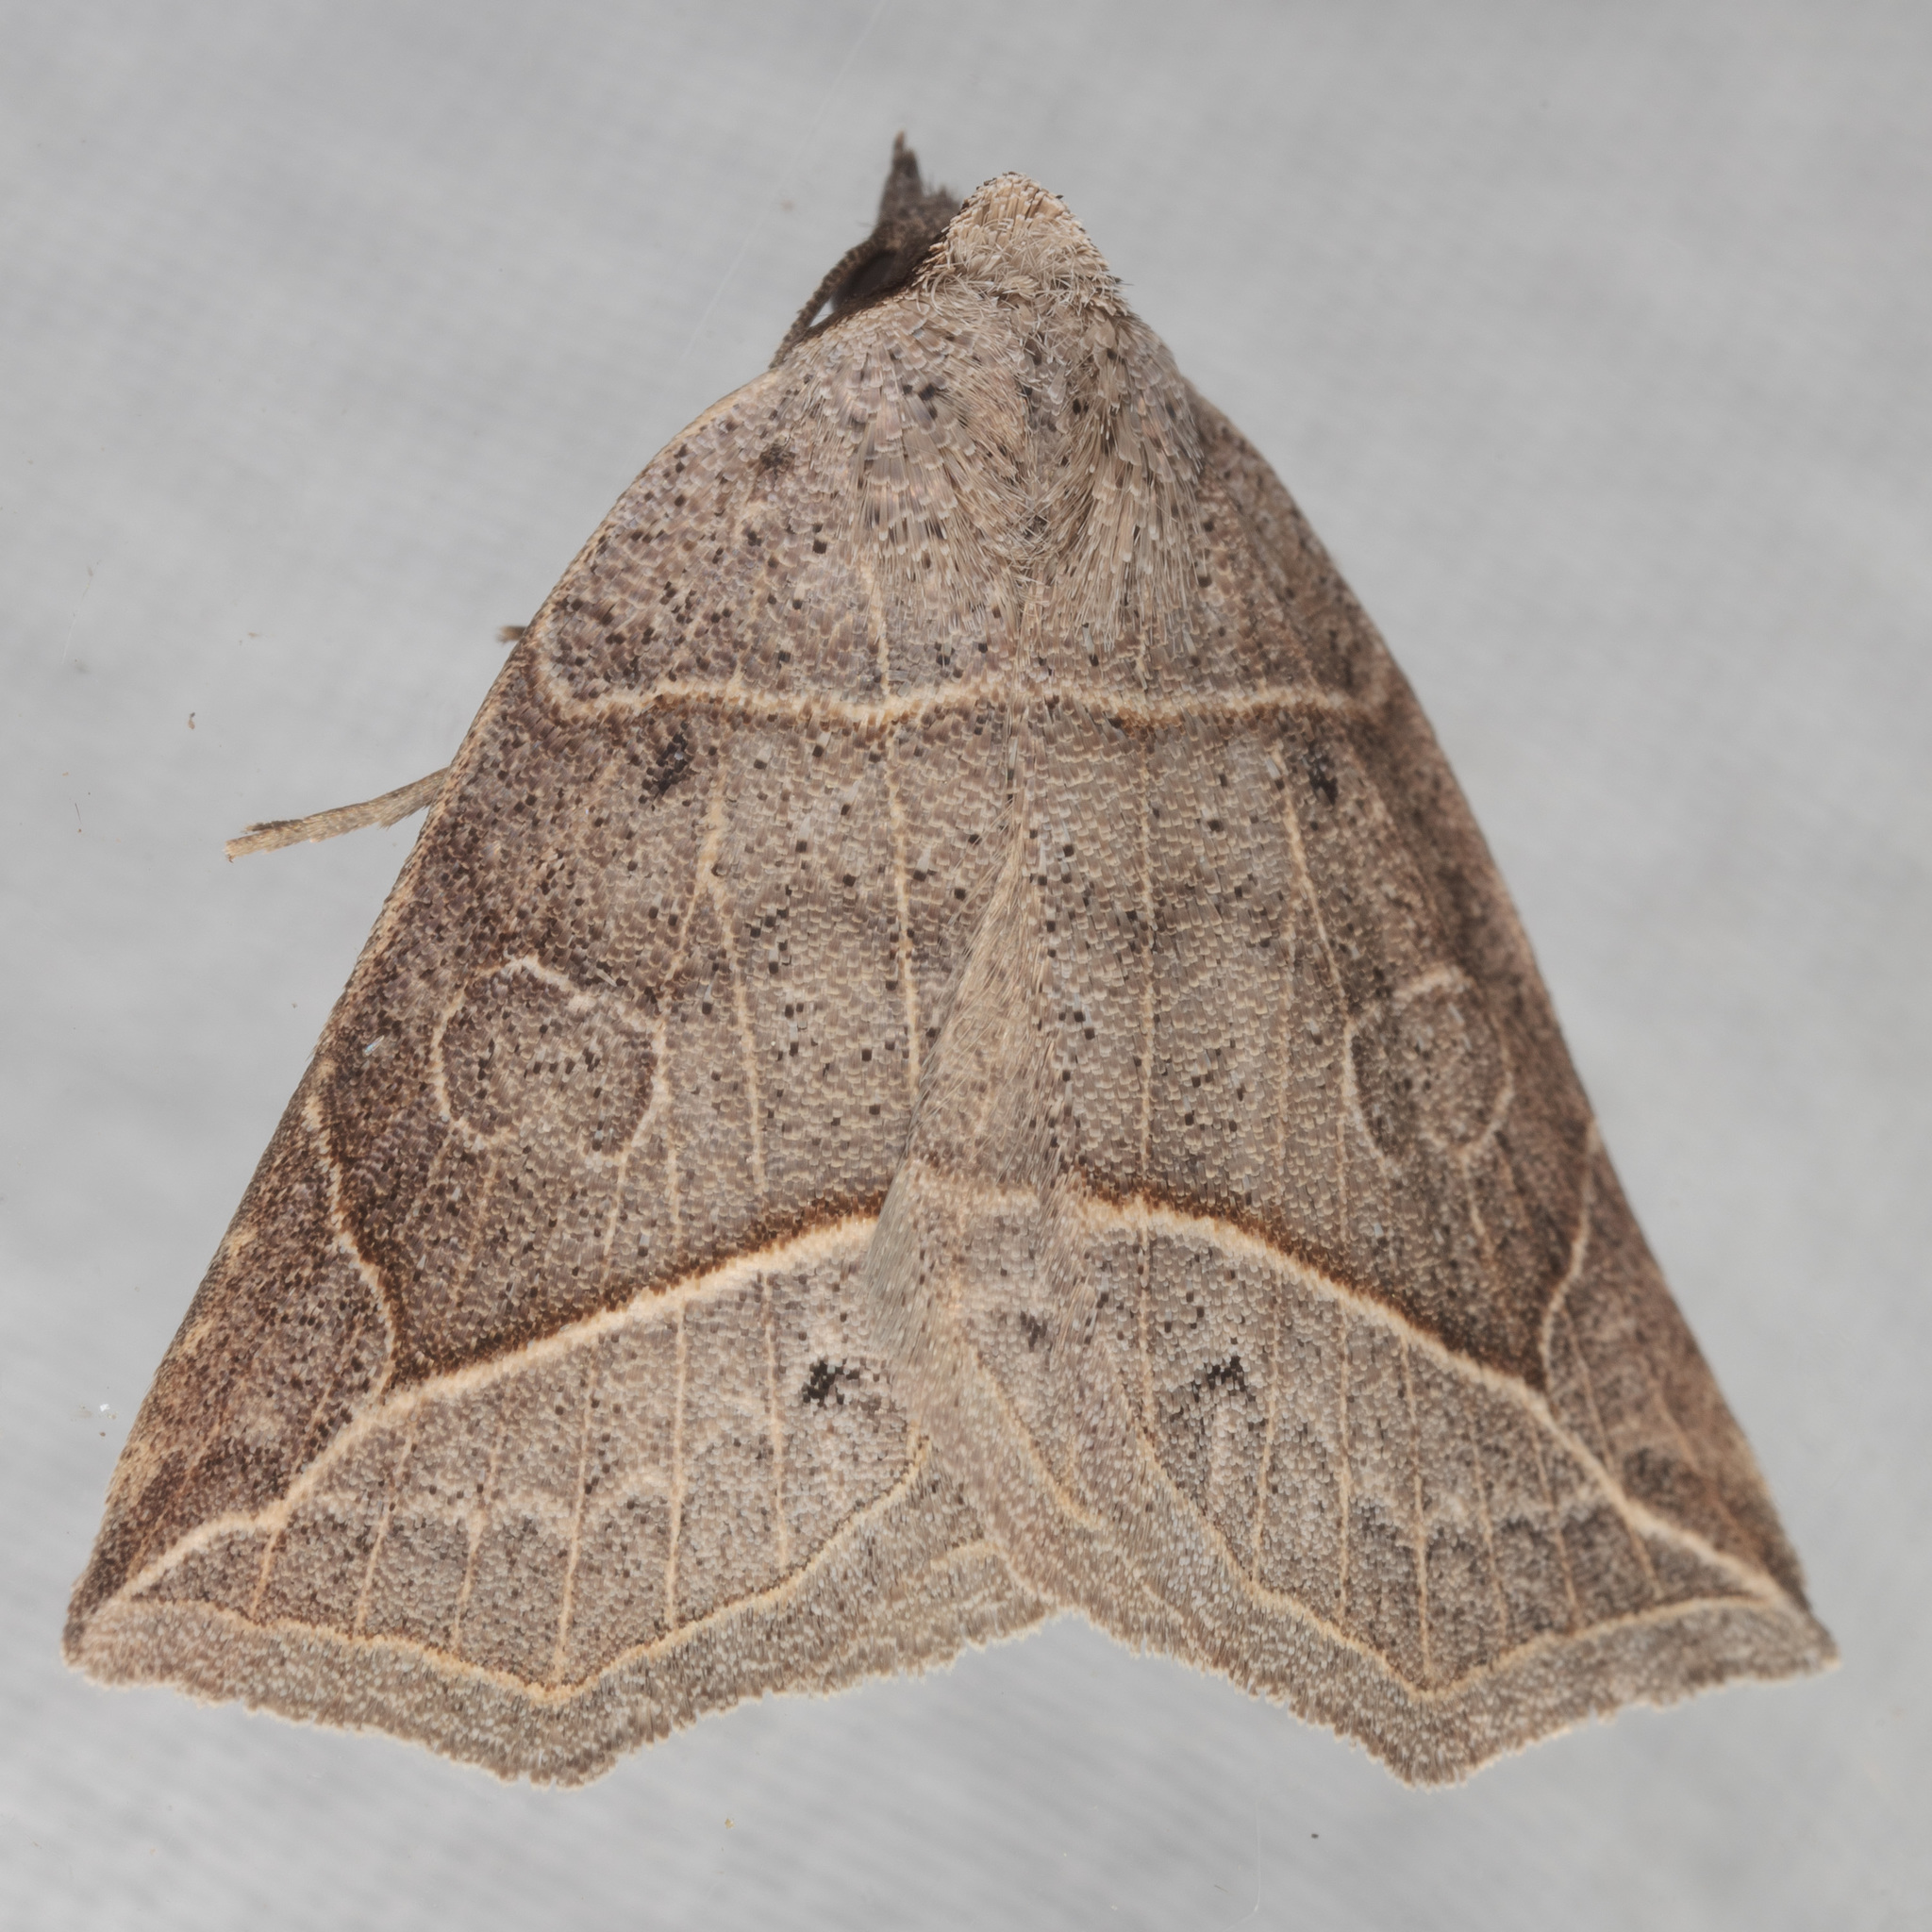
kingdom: Animalia
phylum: Arthropoda
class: Insecta
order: Lepidoptera
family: Erebidae
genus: Isogona
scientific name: Isogona tenuis
